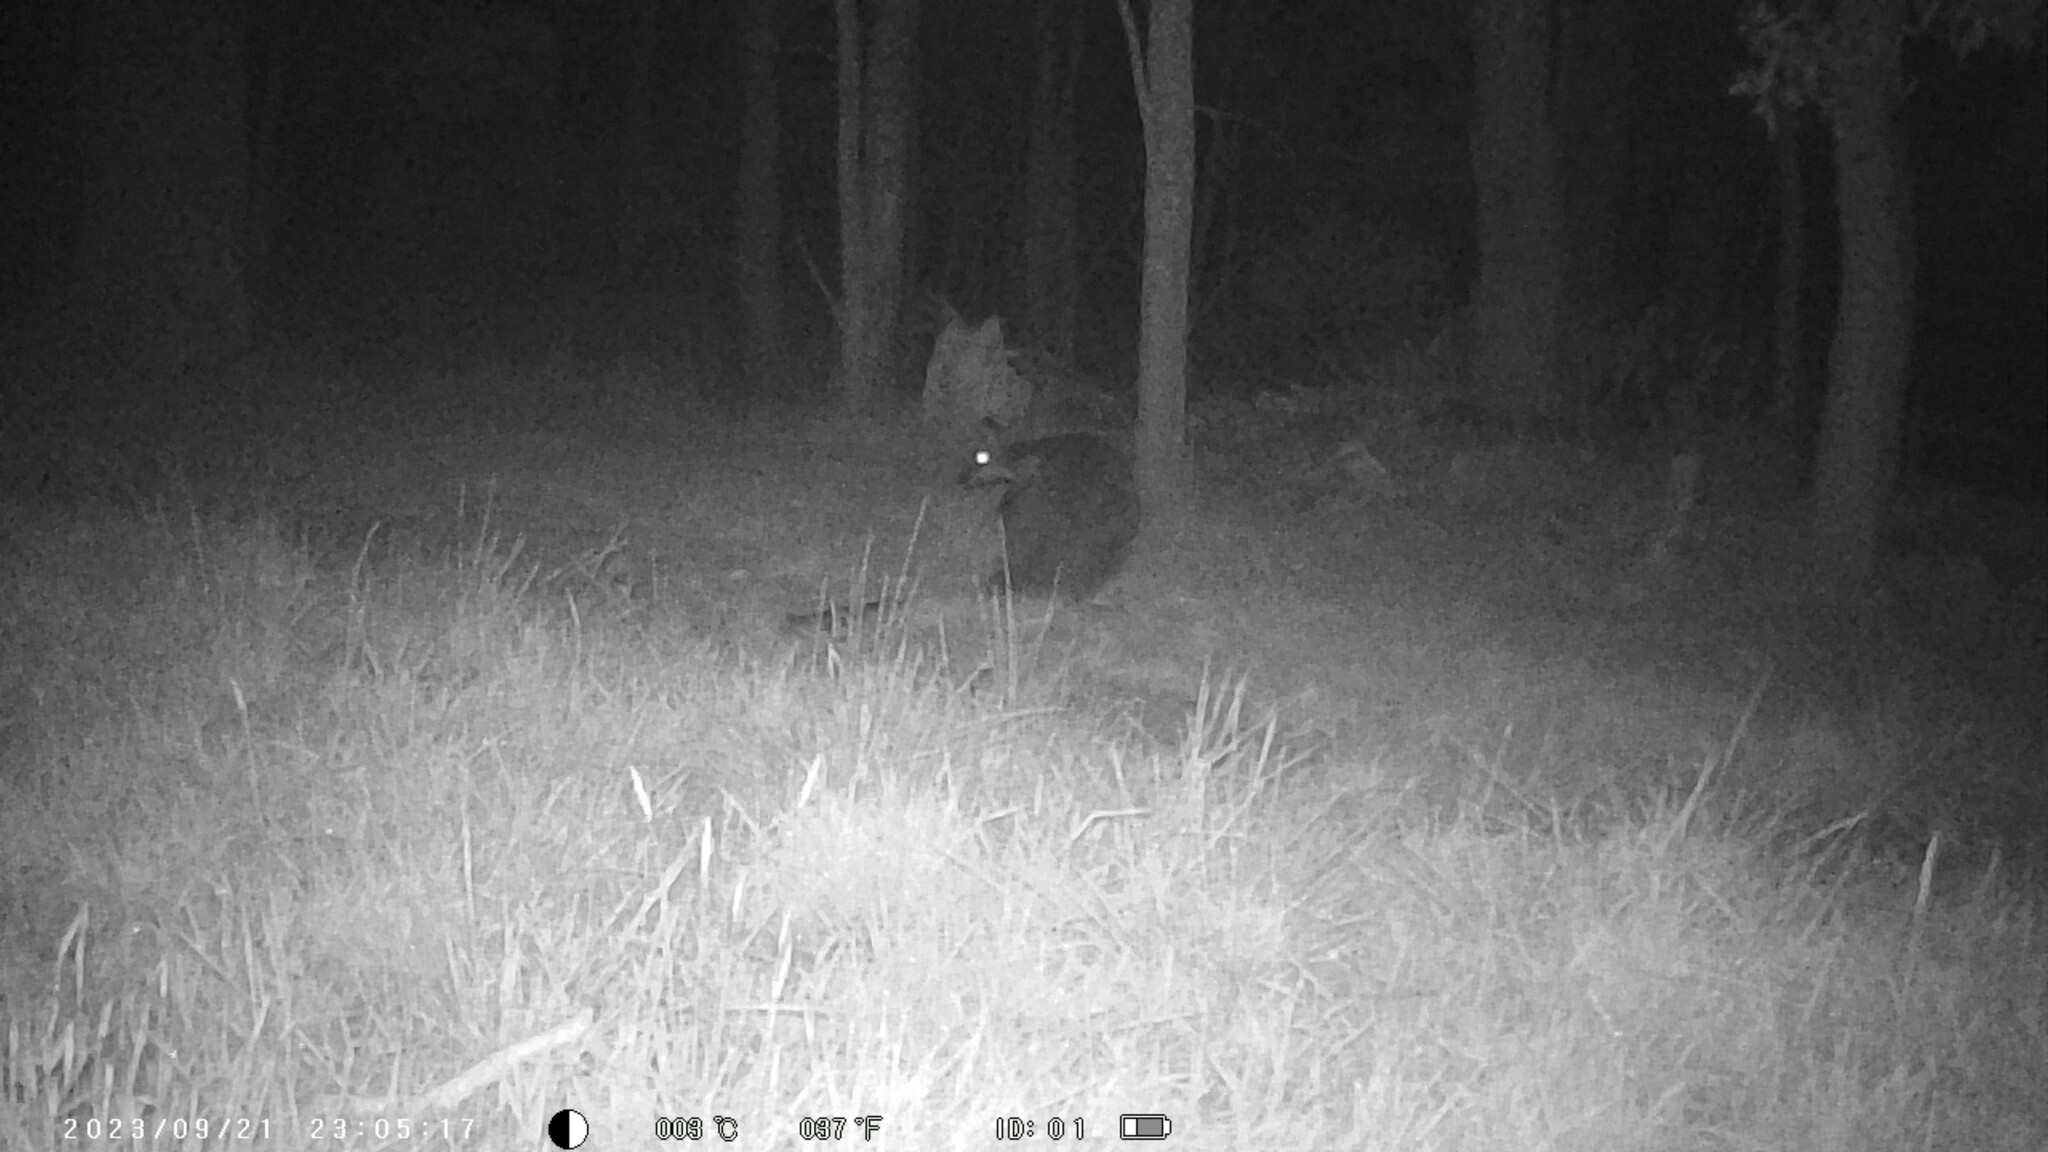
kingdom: Animalia
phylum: Chordata
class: Mammalia
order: Diprotodontia
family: Macropodidae
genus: Wallabia
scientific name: Wallabia bicolor
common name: Swamp wallaby
